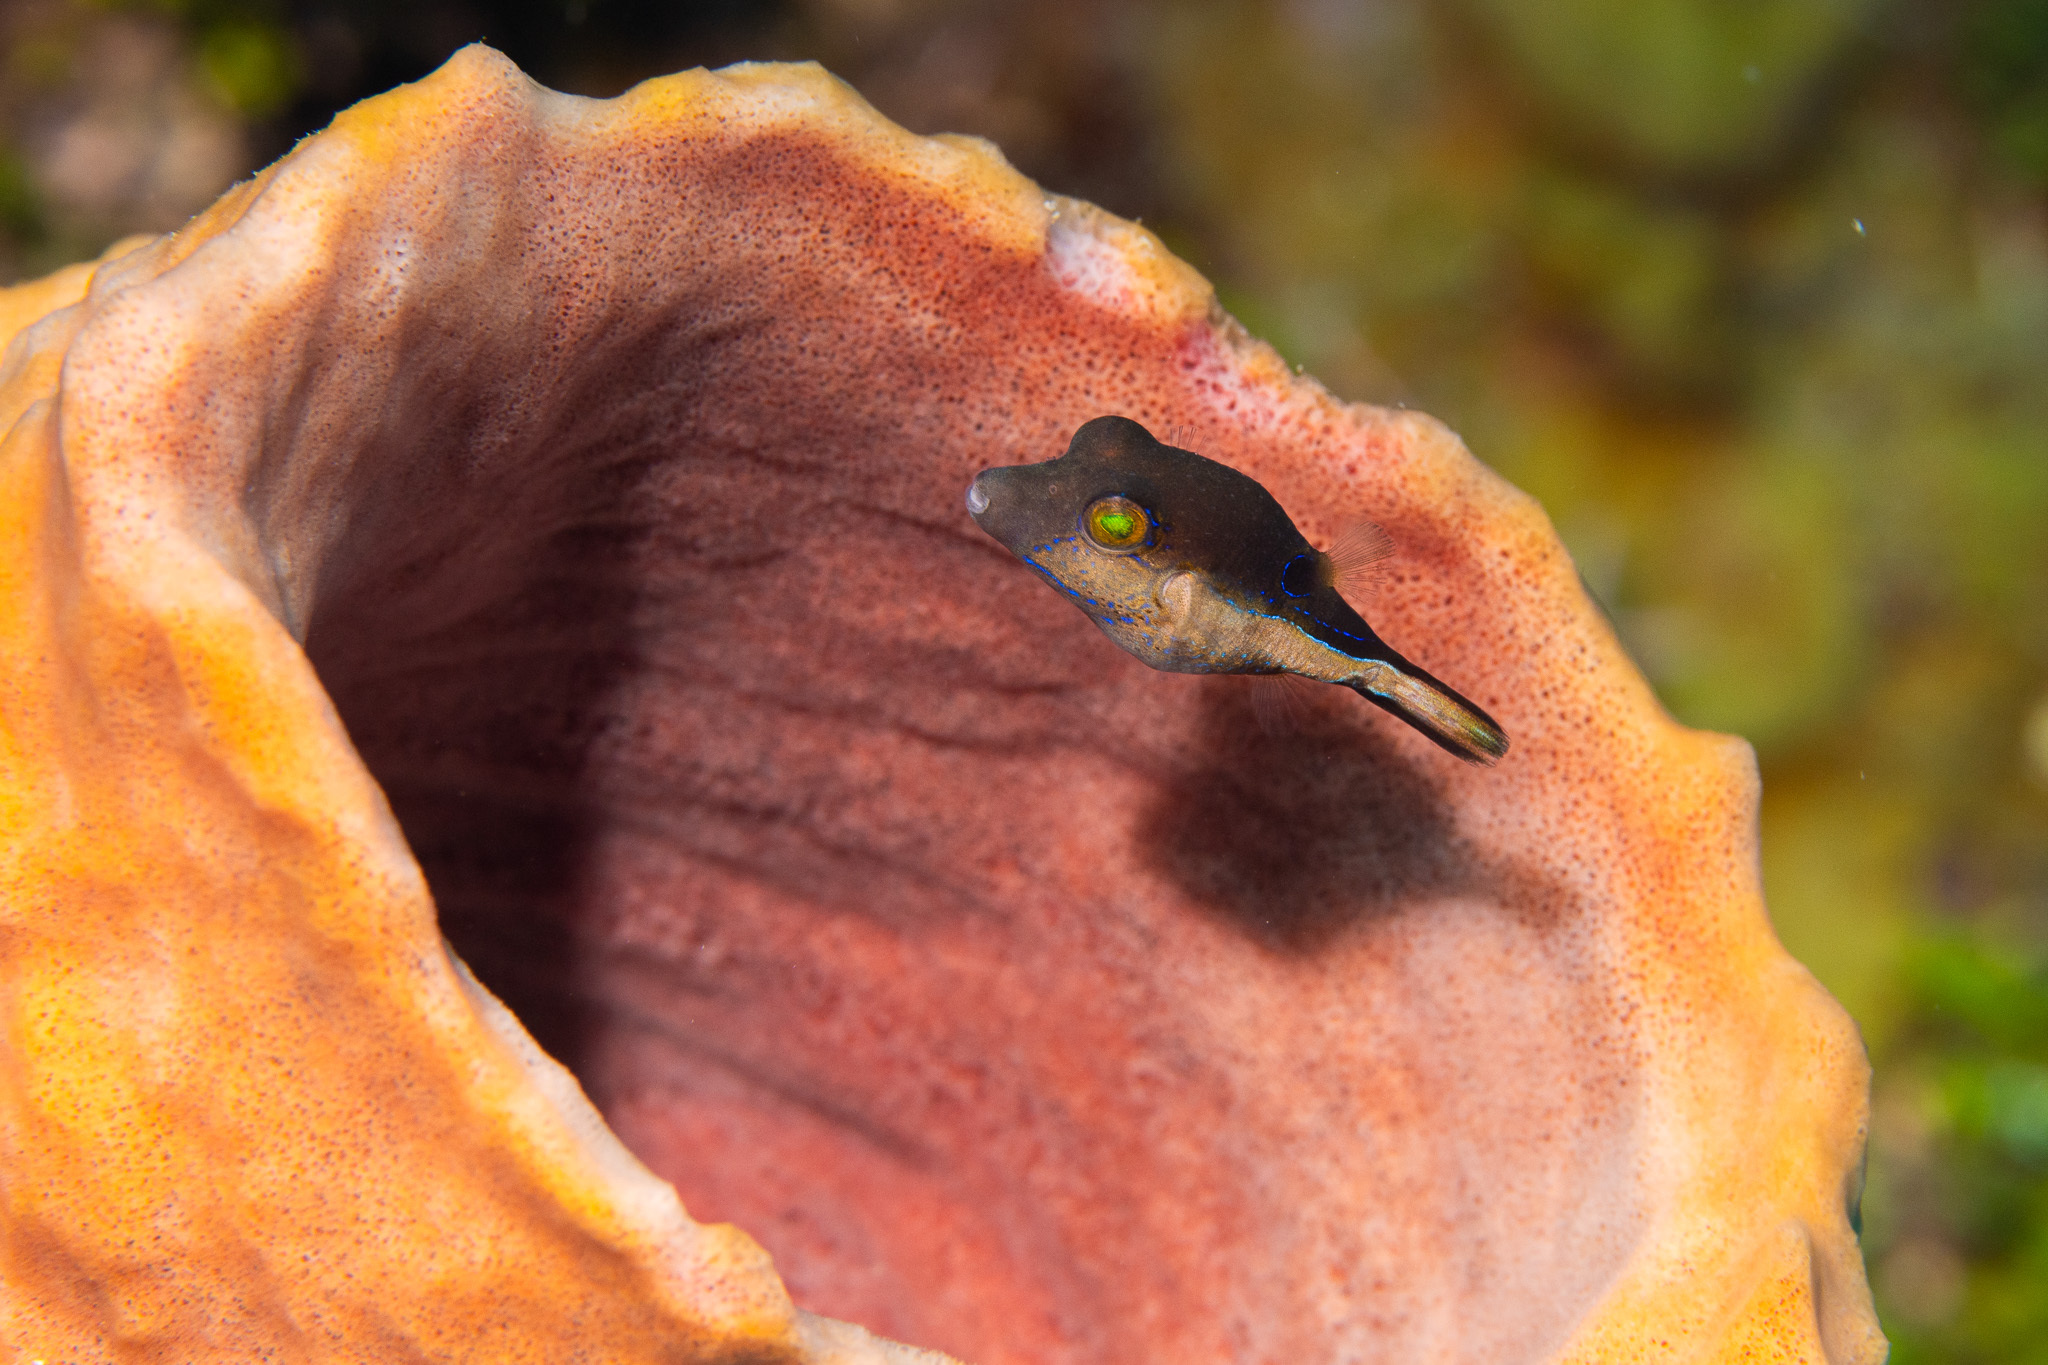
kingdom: Animalia
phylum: Chordata
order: Tetraodontiformes
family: Tetraodontidae
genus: Canthigaster
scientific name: Canthigaster rostrata
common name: Caribbean sharpnose-puffer
